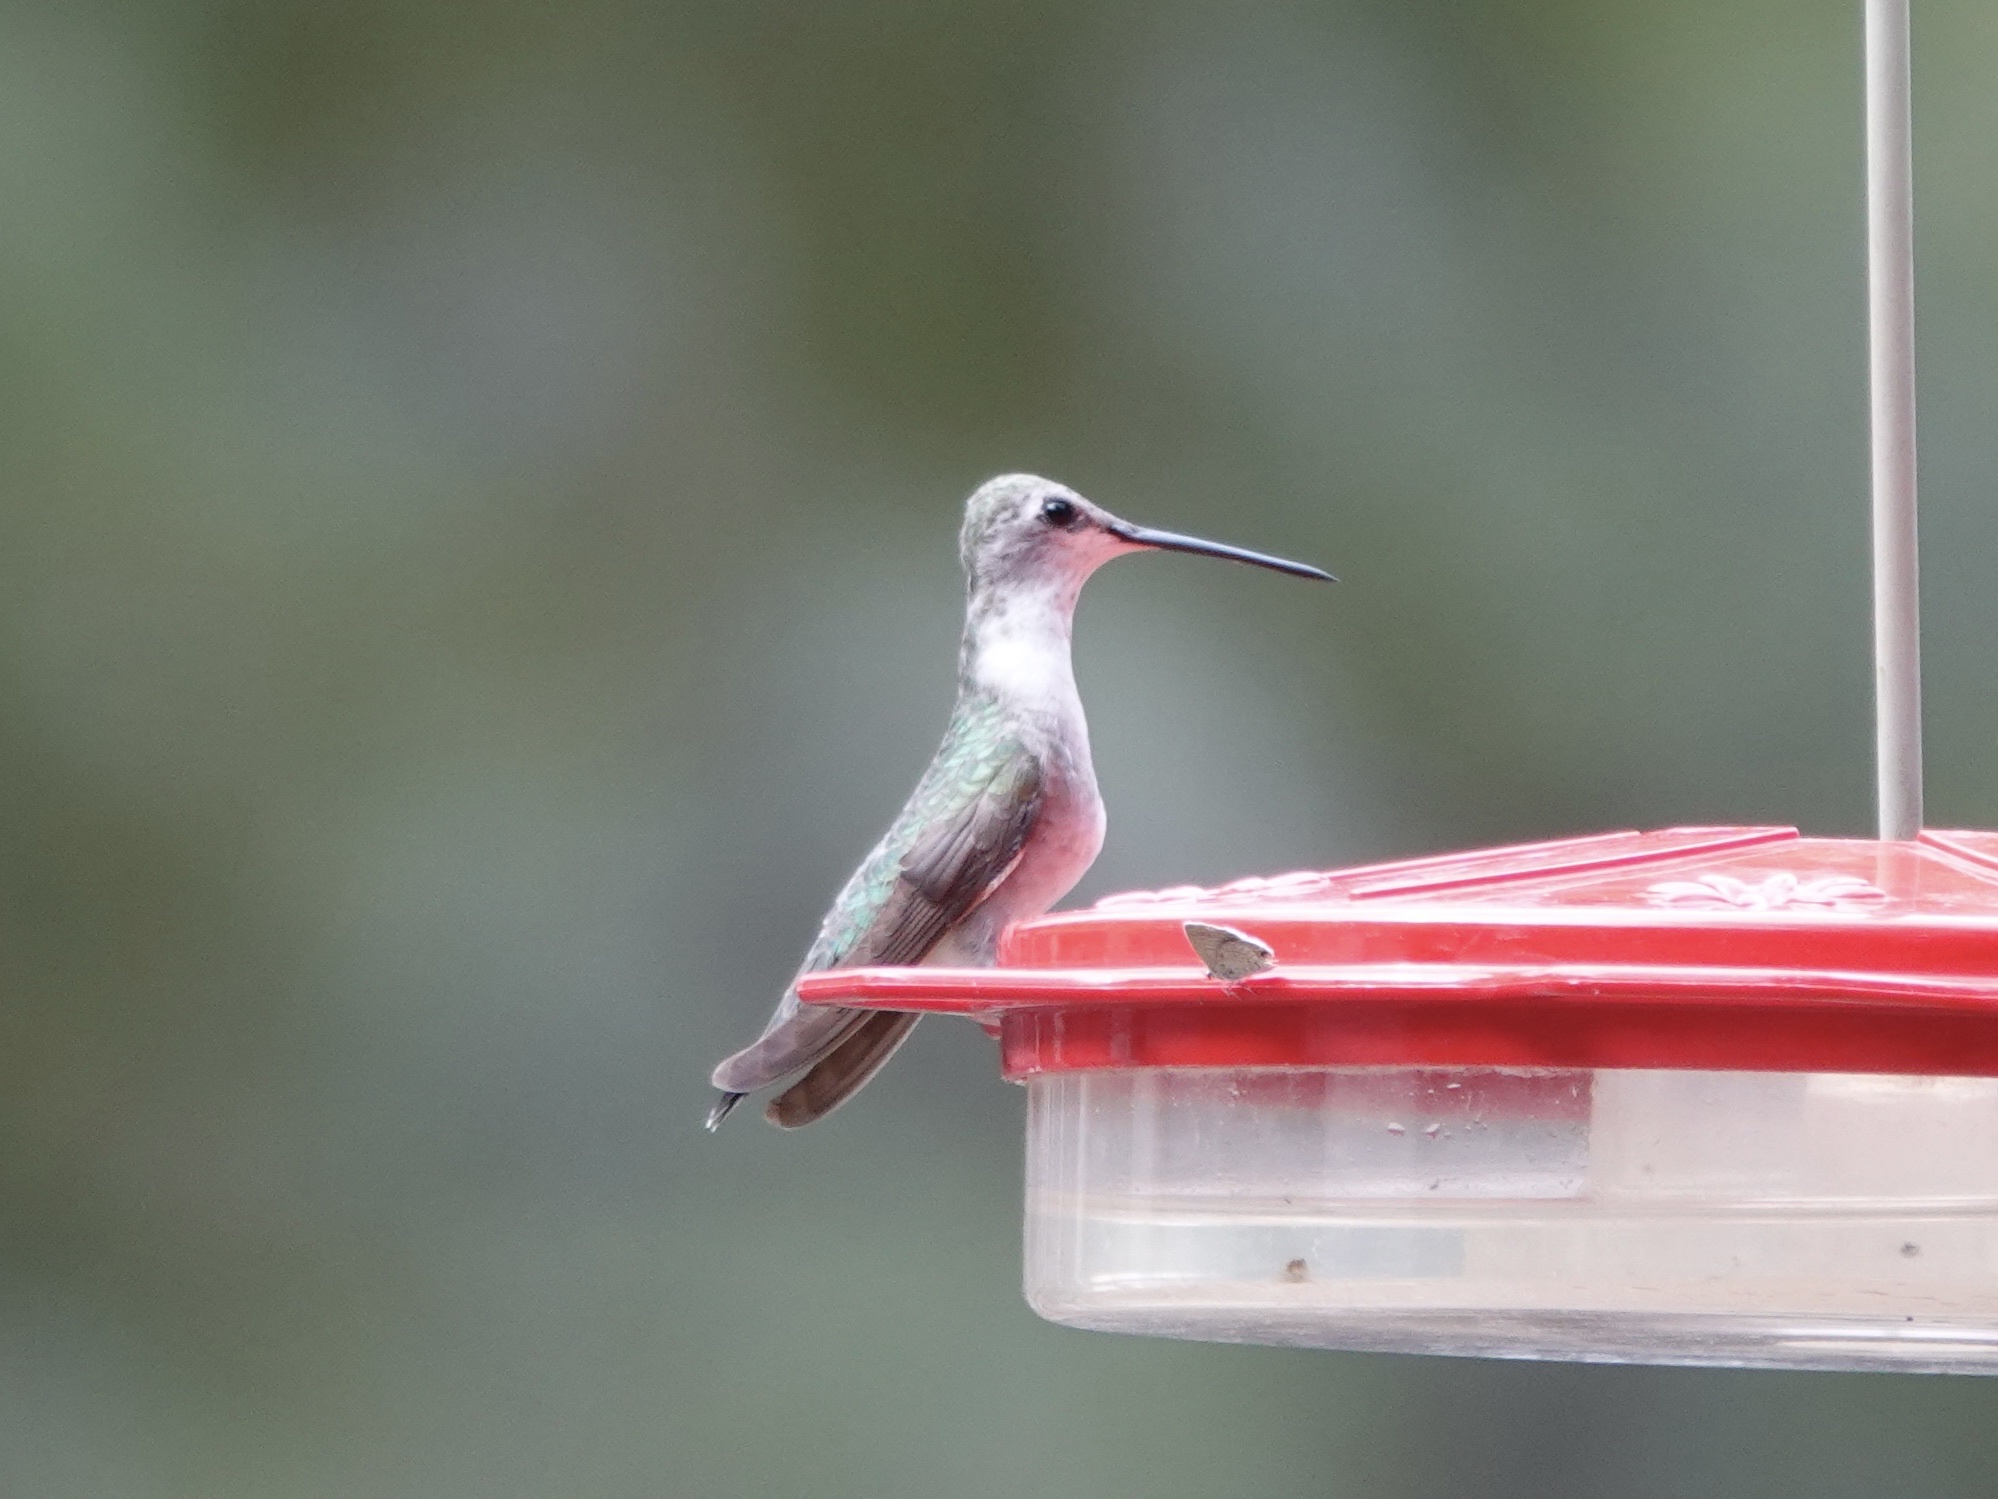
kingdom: Animalia
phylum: Chordata
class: Aves
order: Apodiformes
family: Trochilidae
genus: Archilochus
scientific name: Archilochus alexandri
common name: Black-chinned hummingbird
